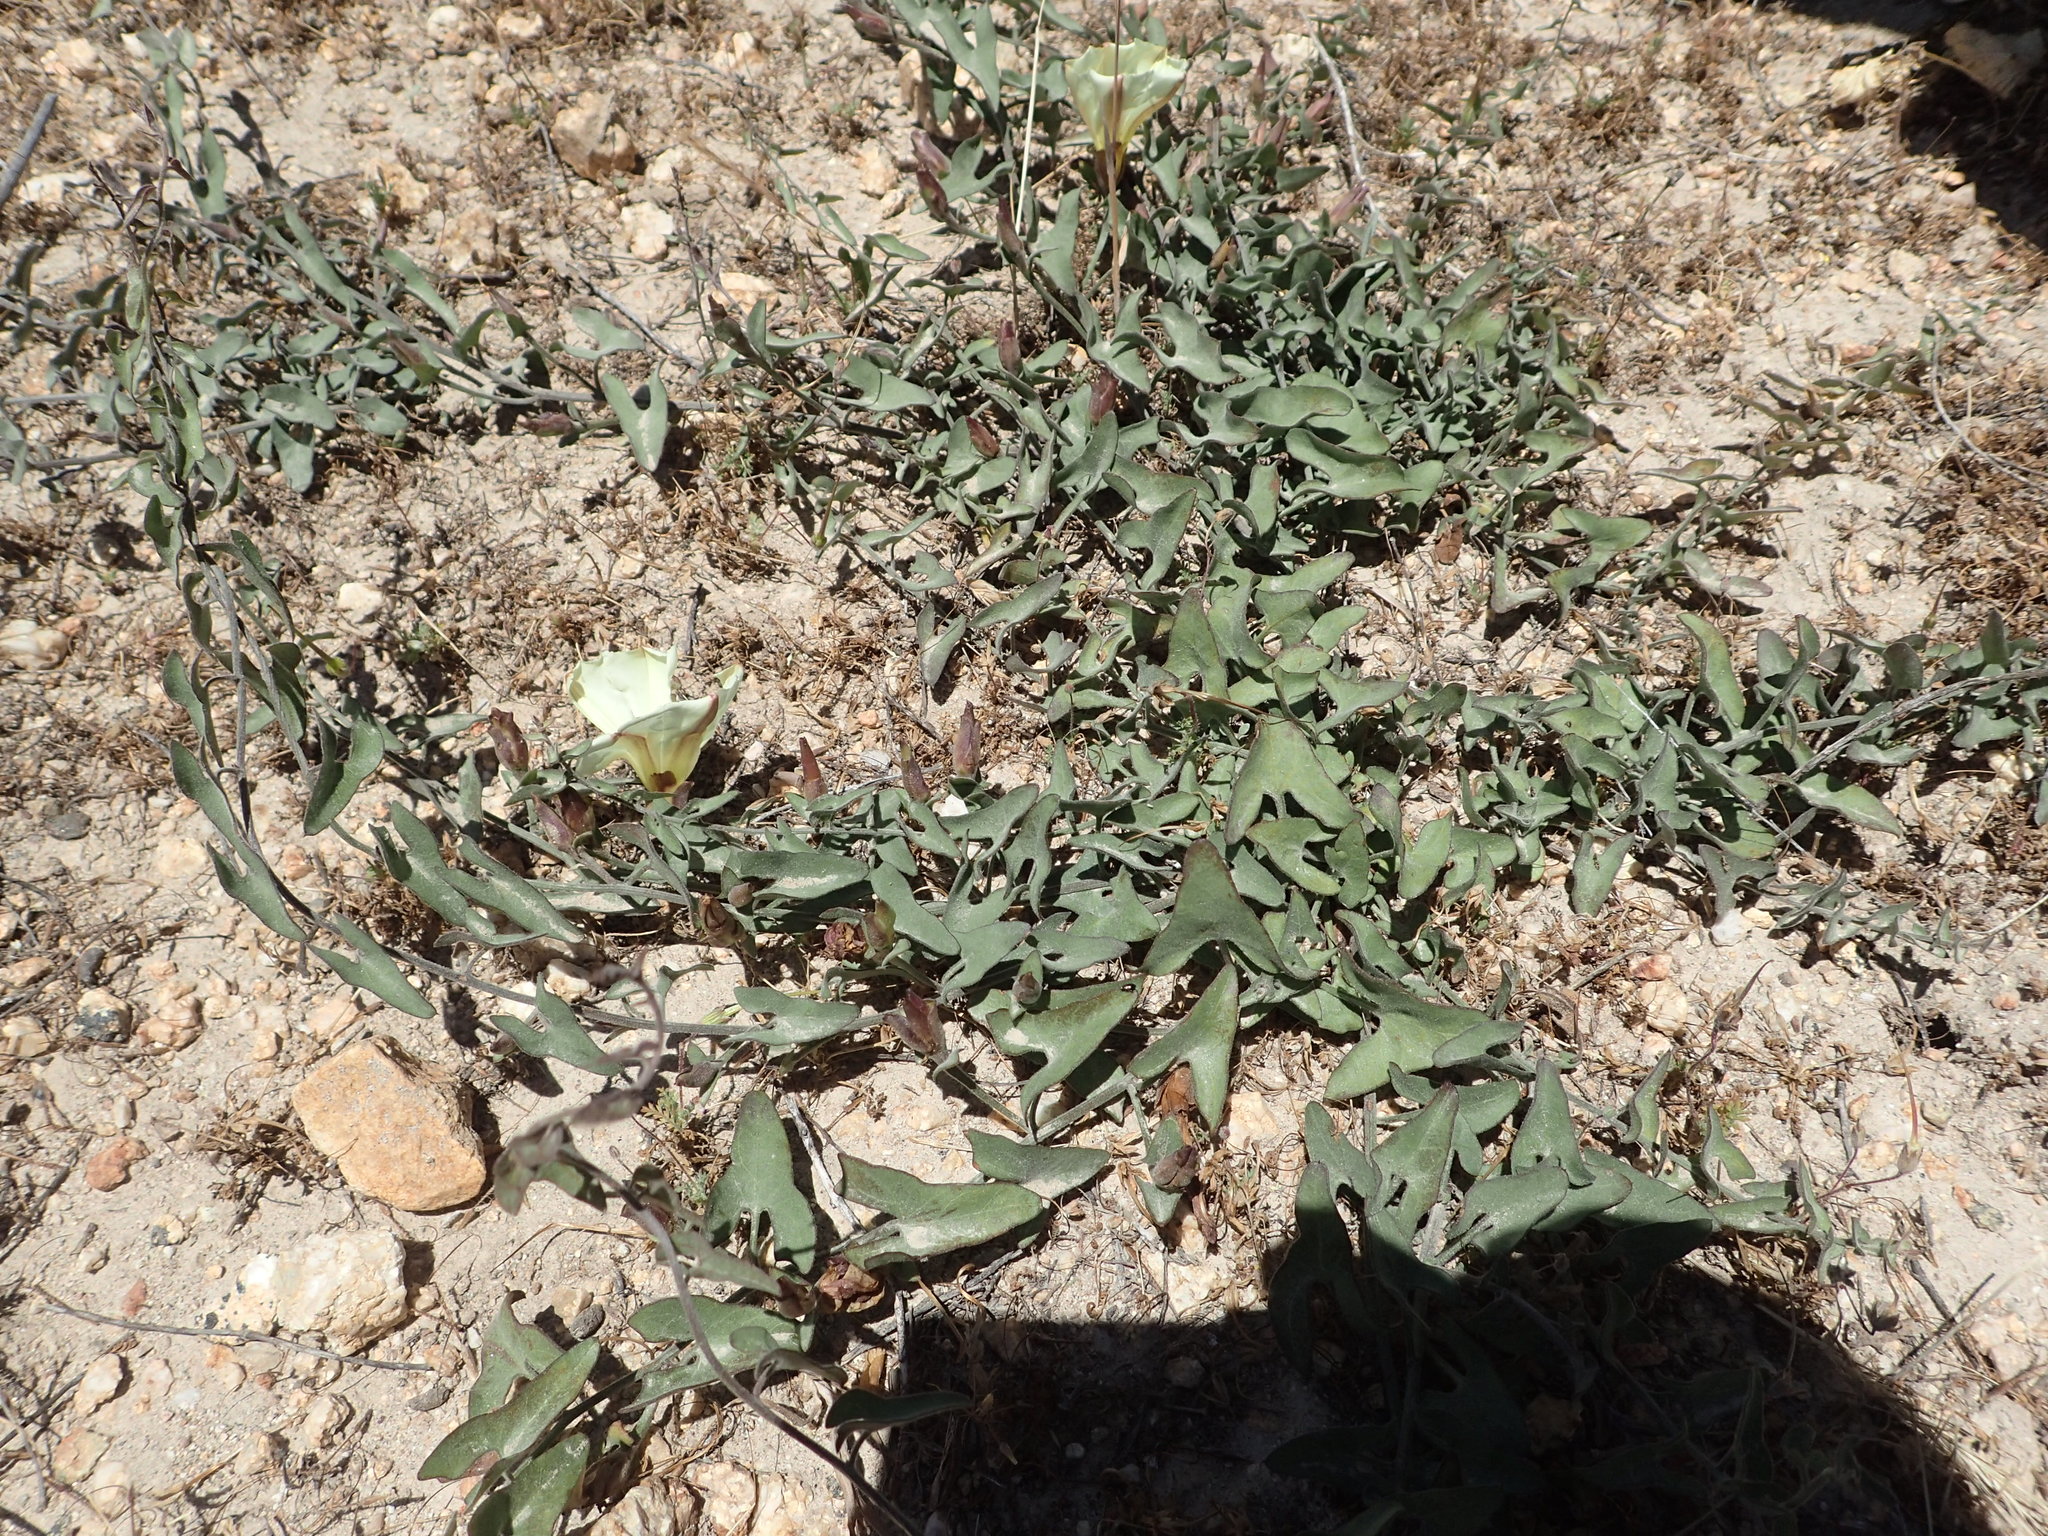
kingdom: Plantae
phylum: Tracheophyta
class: Magnoliopsida
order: Solanales
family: Convolvulaceae
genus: Calystegia
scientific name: Calystegia peirsonii
